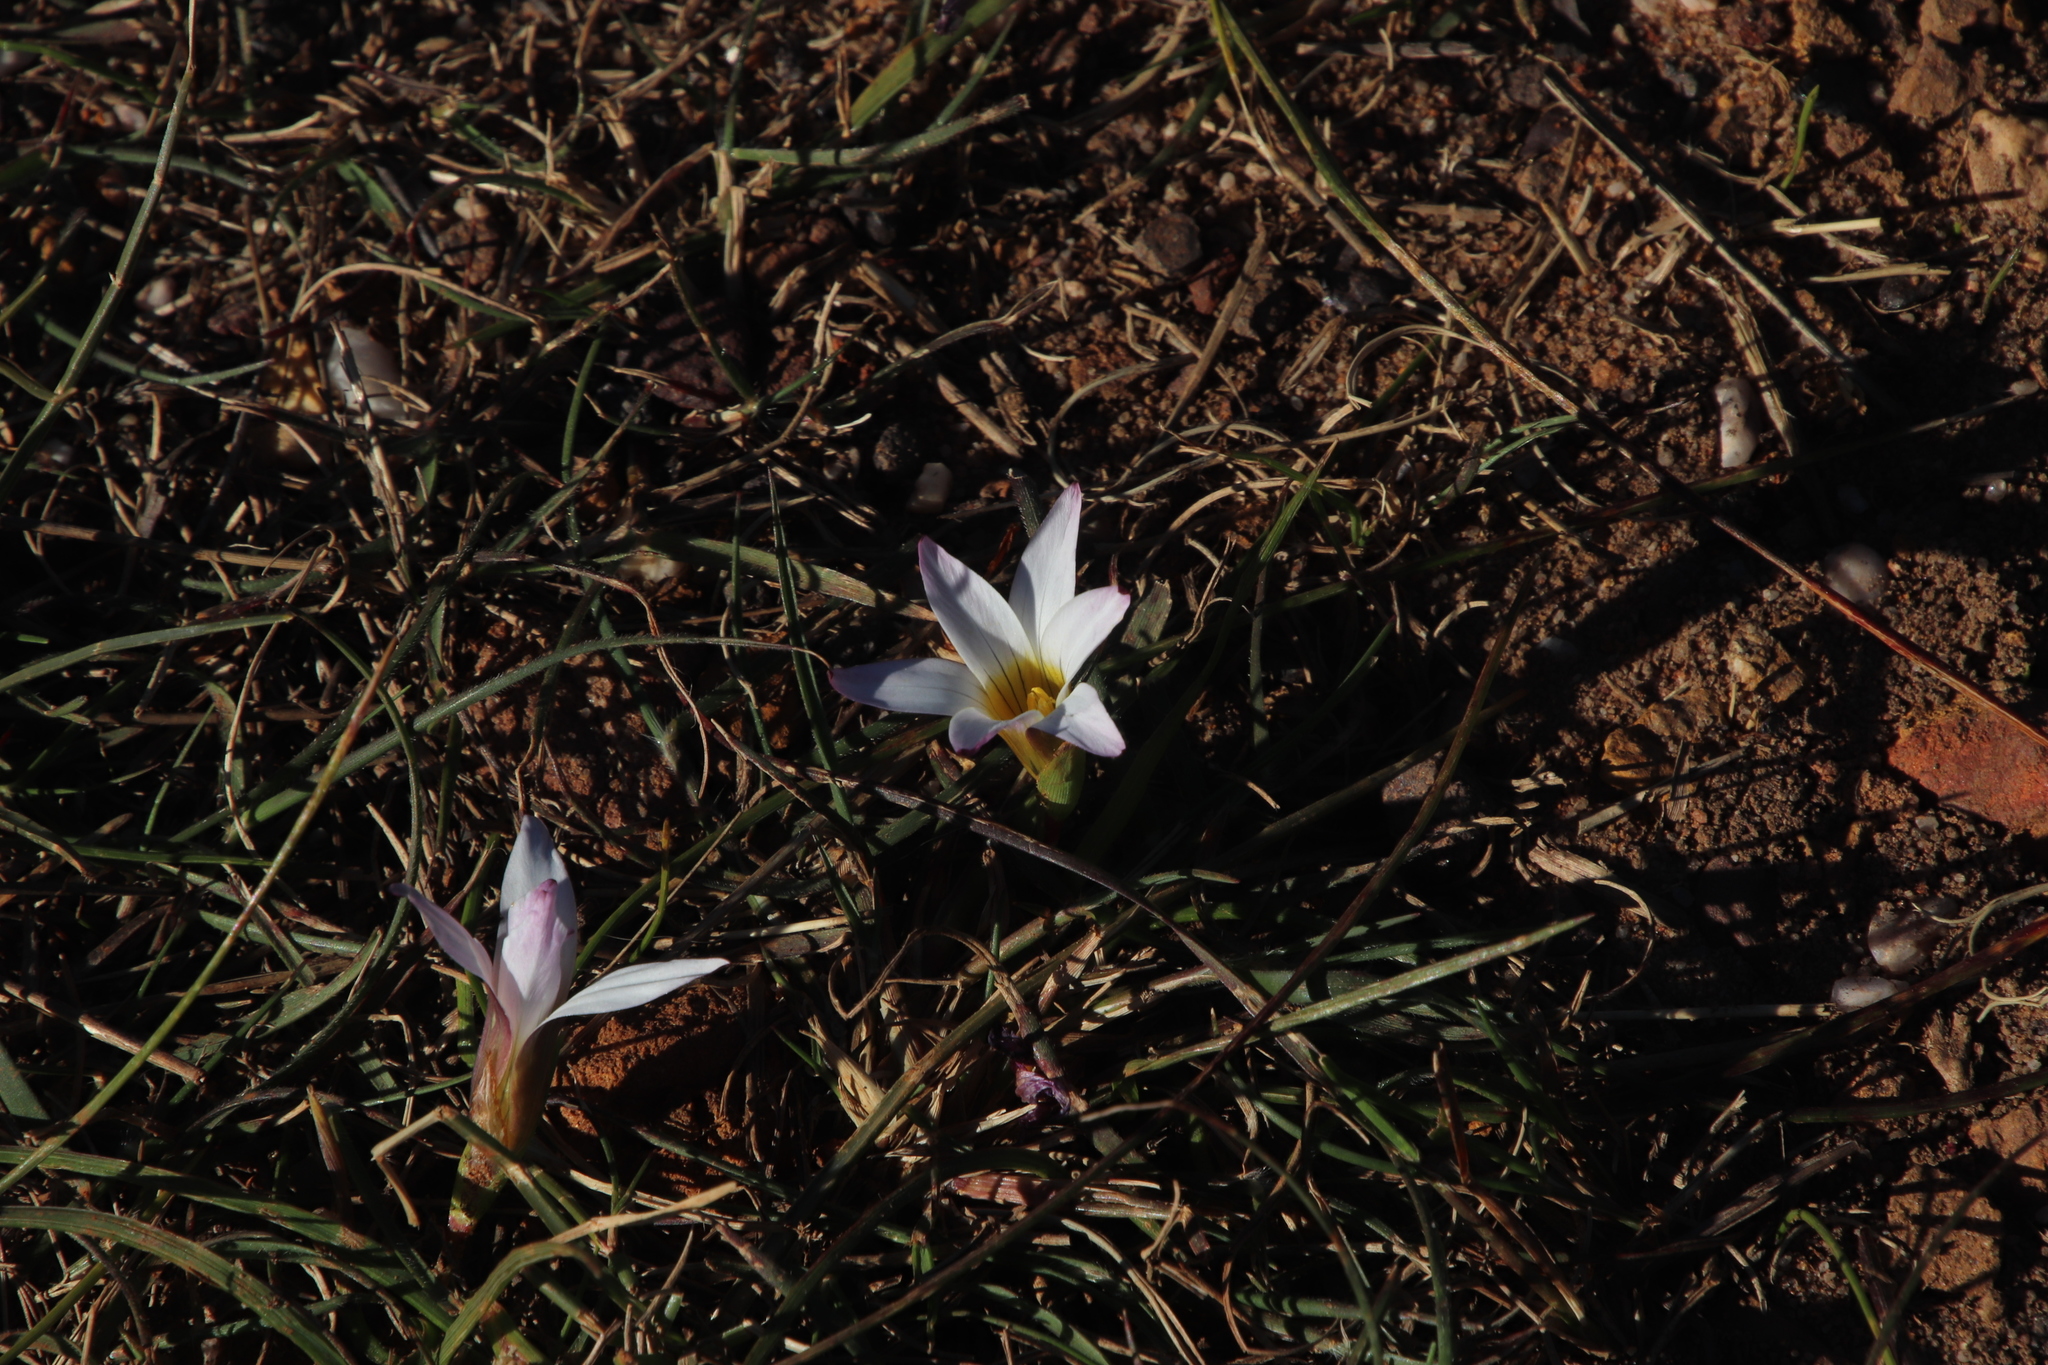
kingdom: Plantae
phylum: Tracheophyta
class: Liliopsida
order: Asparagales
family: Iridaceae
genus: Romulea
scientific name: Romulea flava
